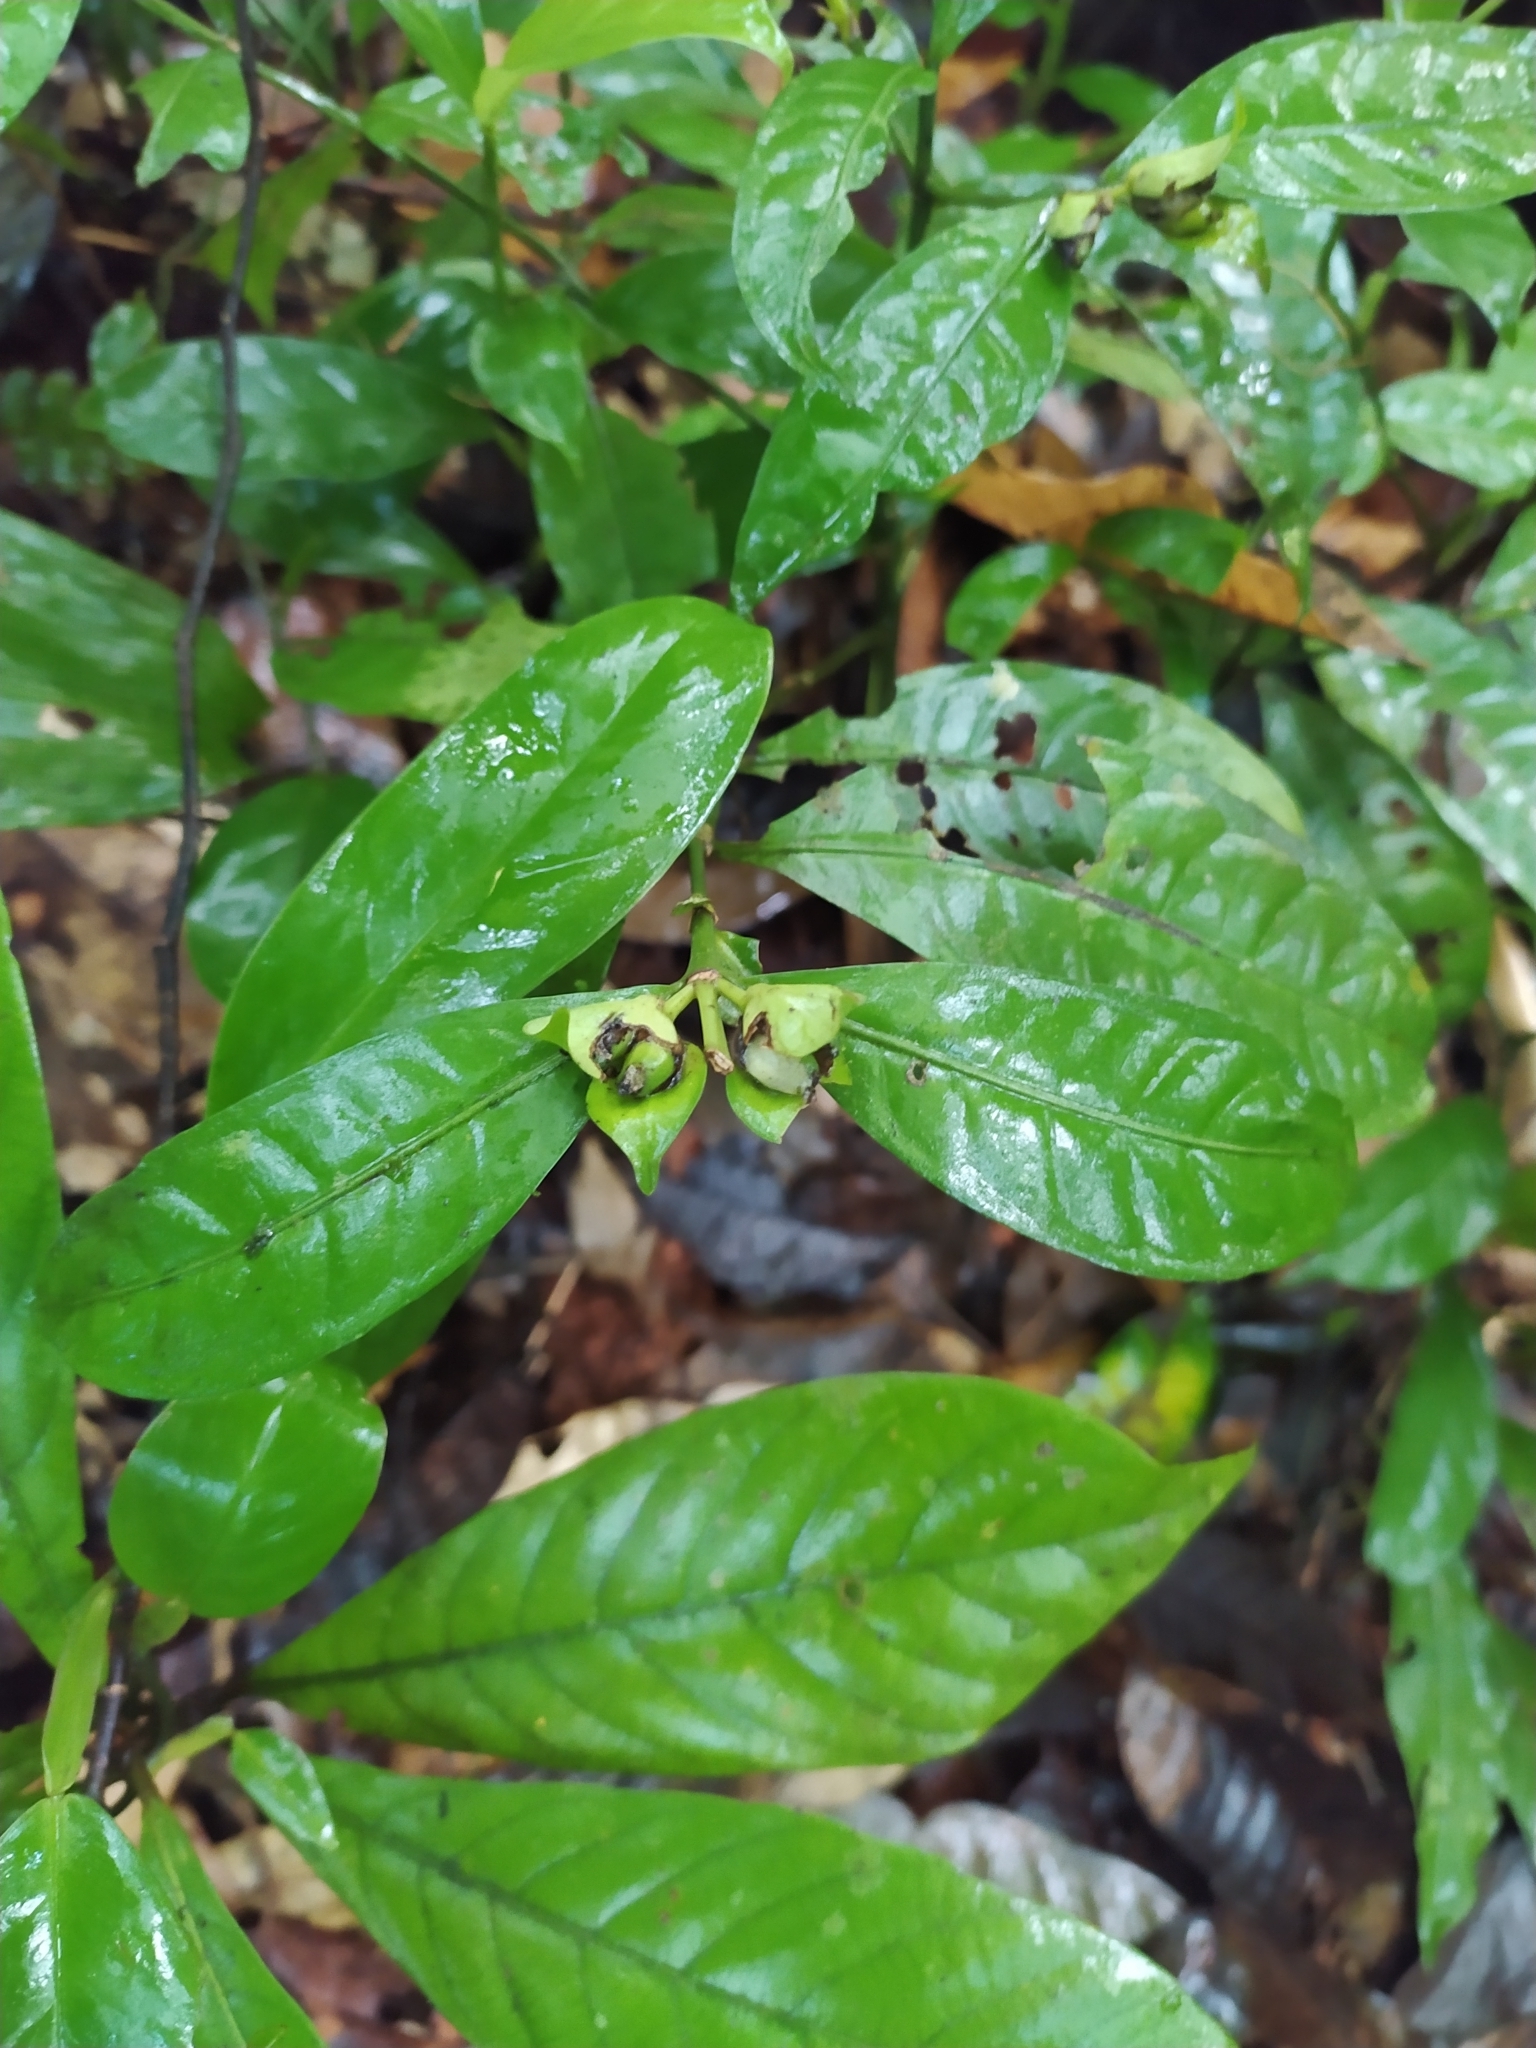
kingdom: Plantae
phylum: Tracheophyta
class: Magnoliopsida
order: Gentianales
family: Rubiaceae
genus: Faramea
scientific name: Faramea guianensis
